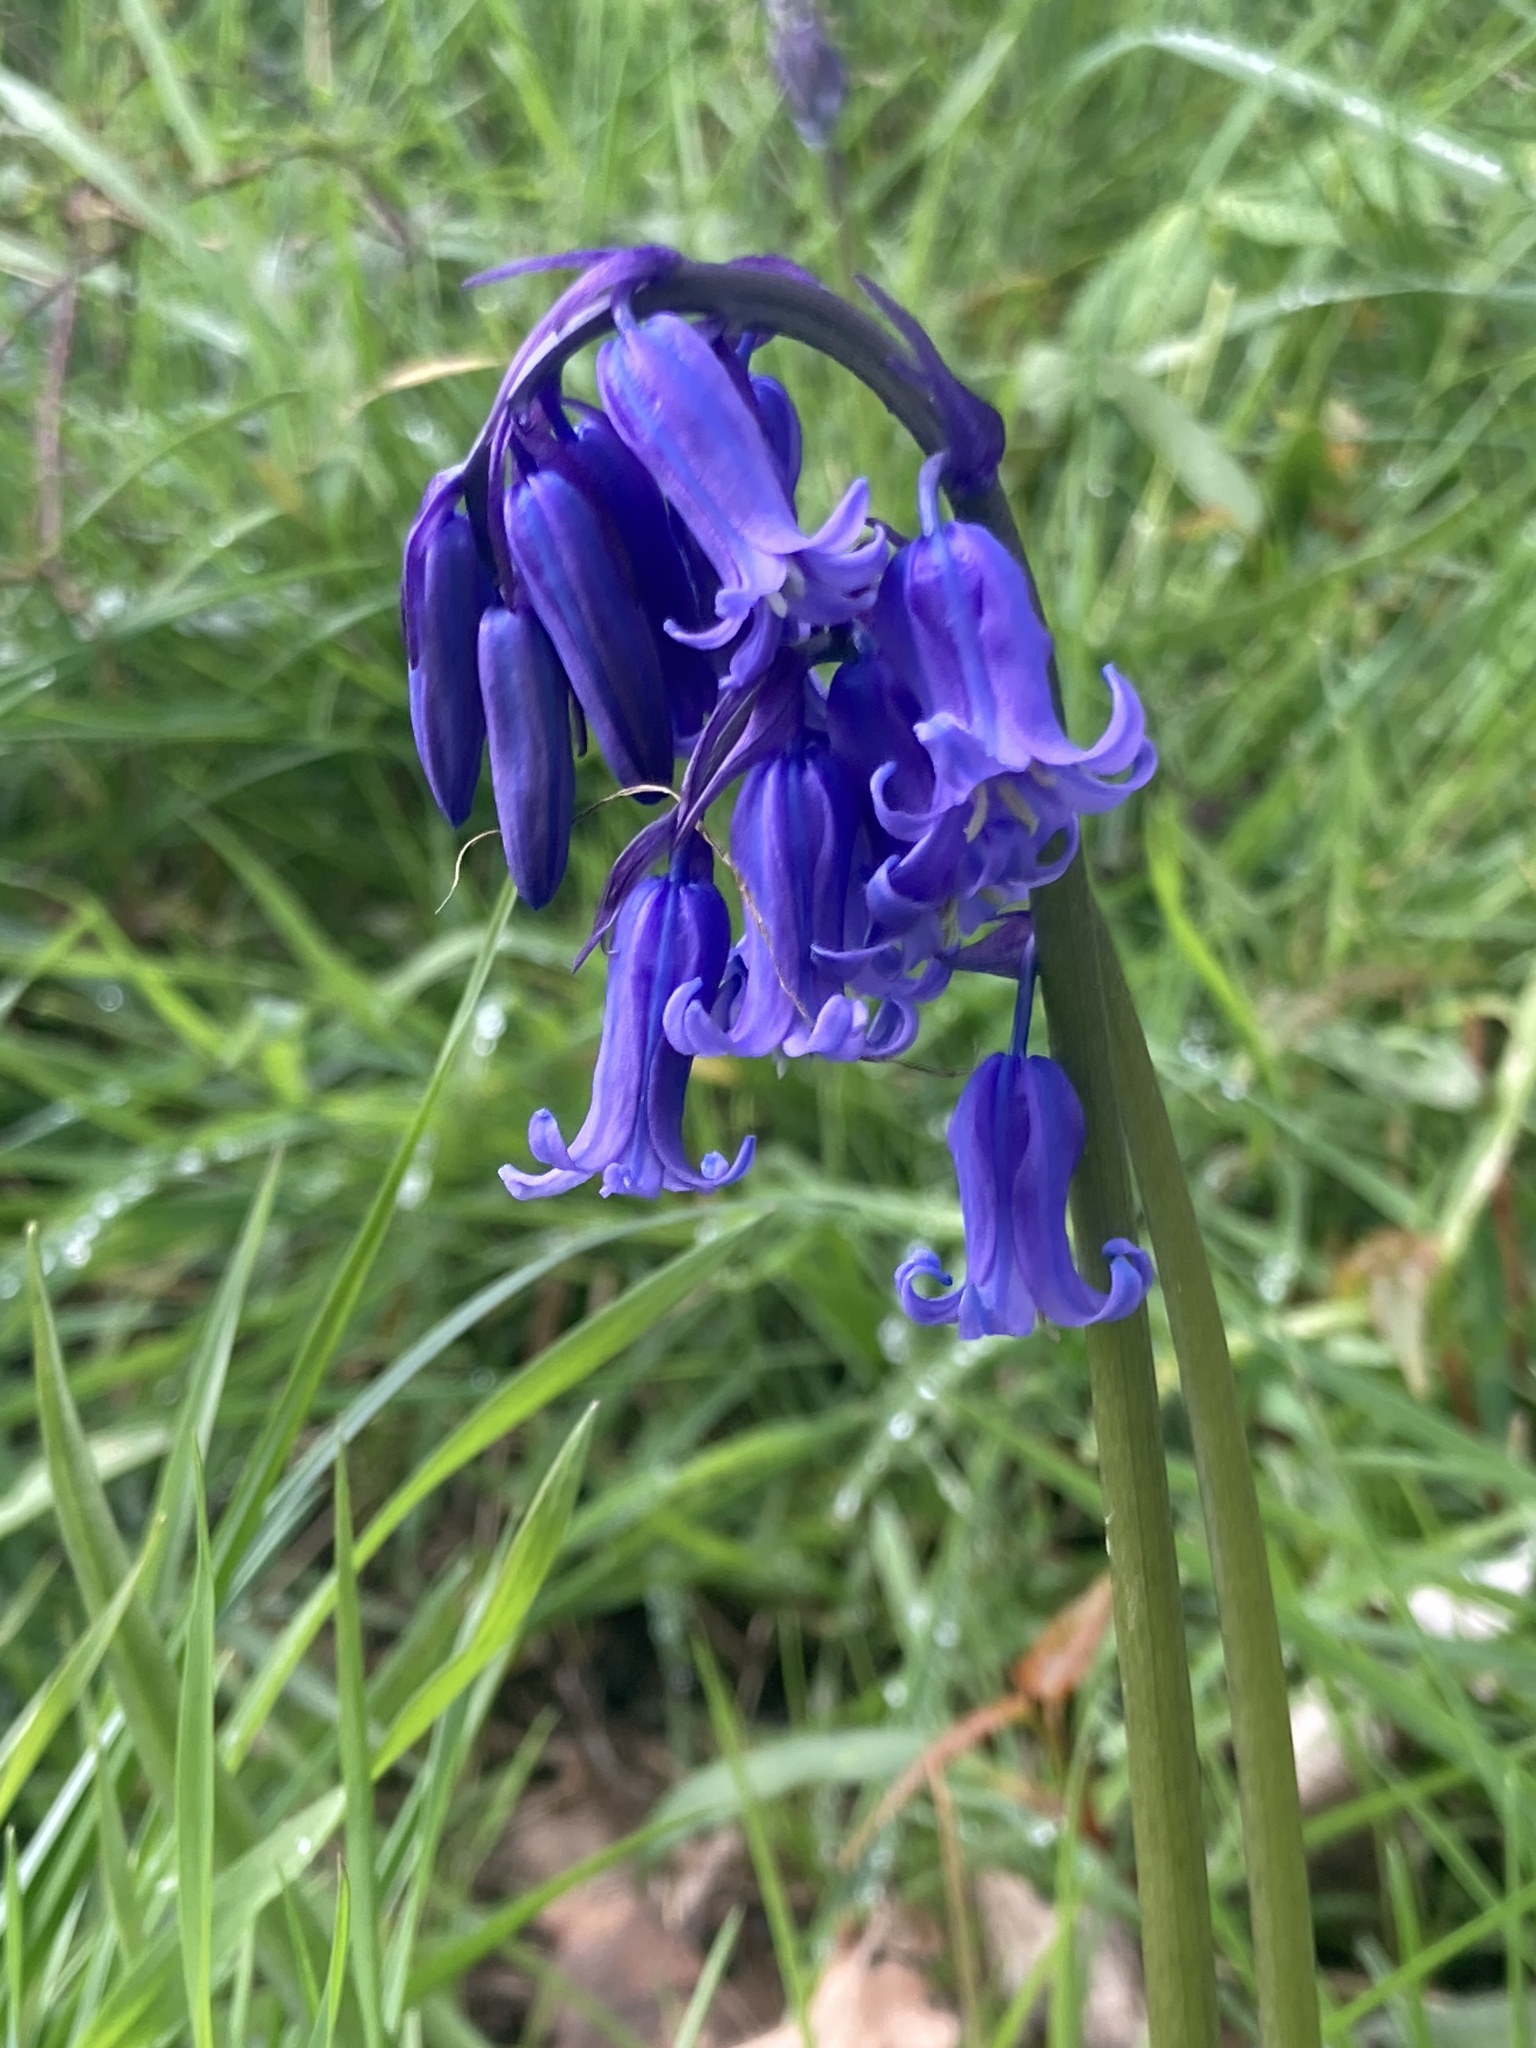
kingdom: Plantae
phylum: Tracheophyta
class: Liliopsida
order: Asparagales
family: Asparagaceae
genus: Hyacinthoides
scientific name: Hyacinthoides non-scripta
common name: Bluebell
